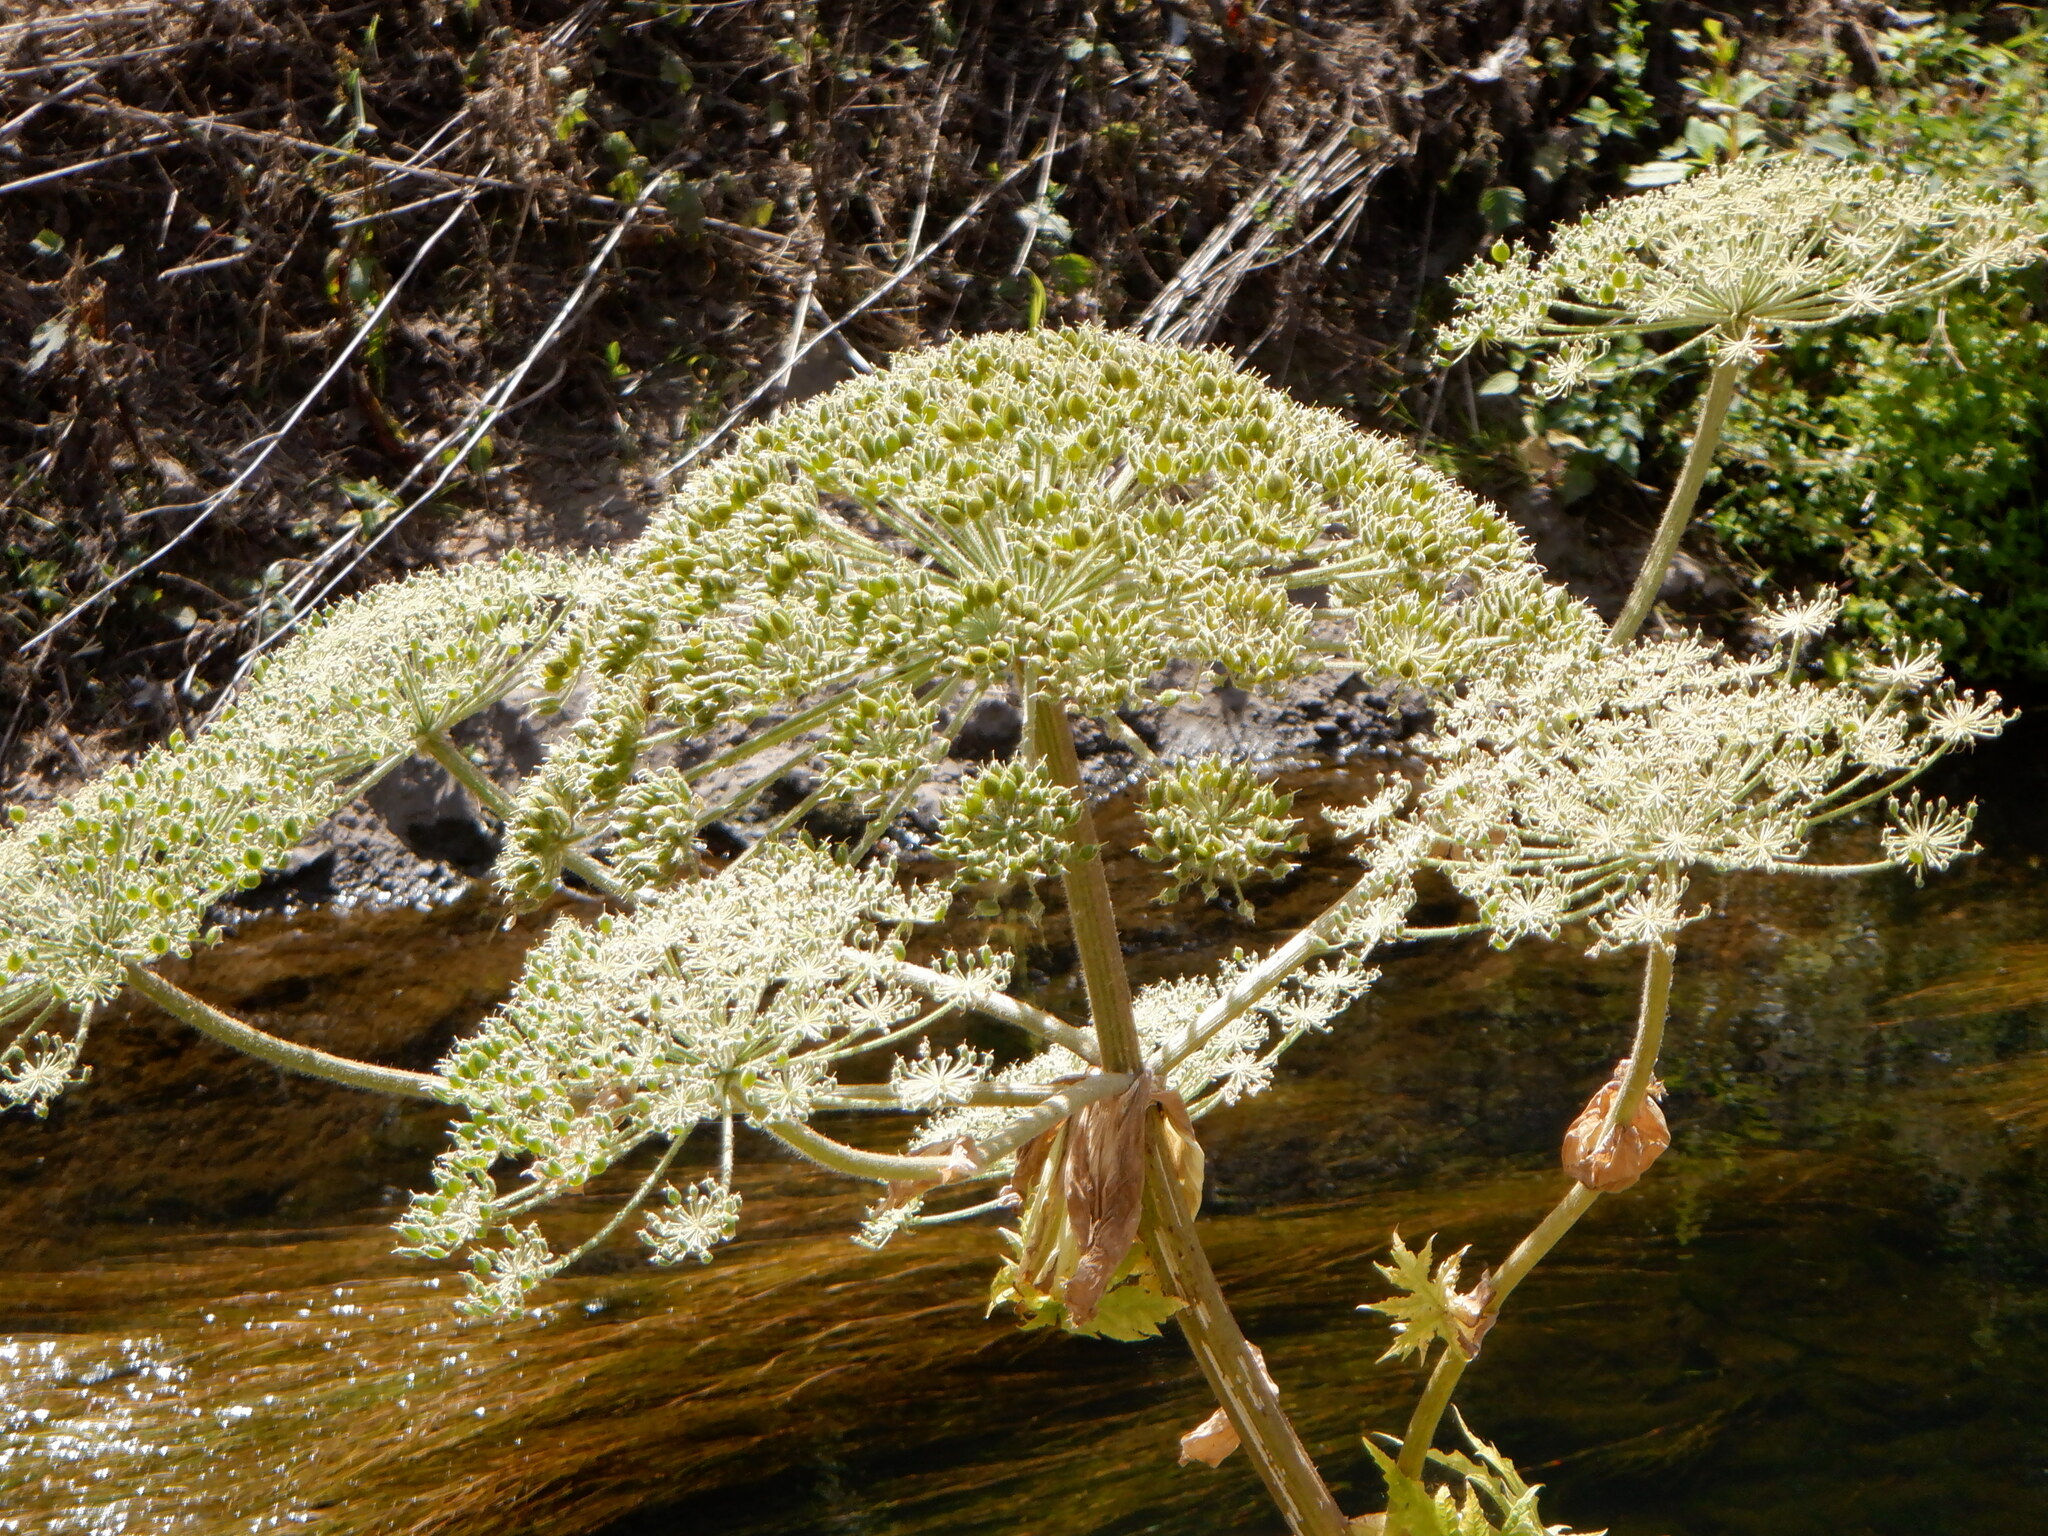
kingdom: Plantae
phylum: Tracheophyta
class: Magnoliopsida
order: Apiales
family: Apiaceae
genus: Heracleum
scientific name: Heracleum mantegazzianum
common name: Giant hogweed
